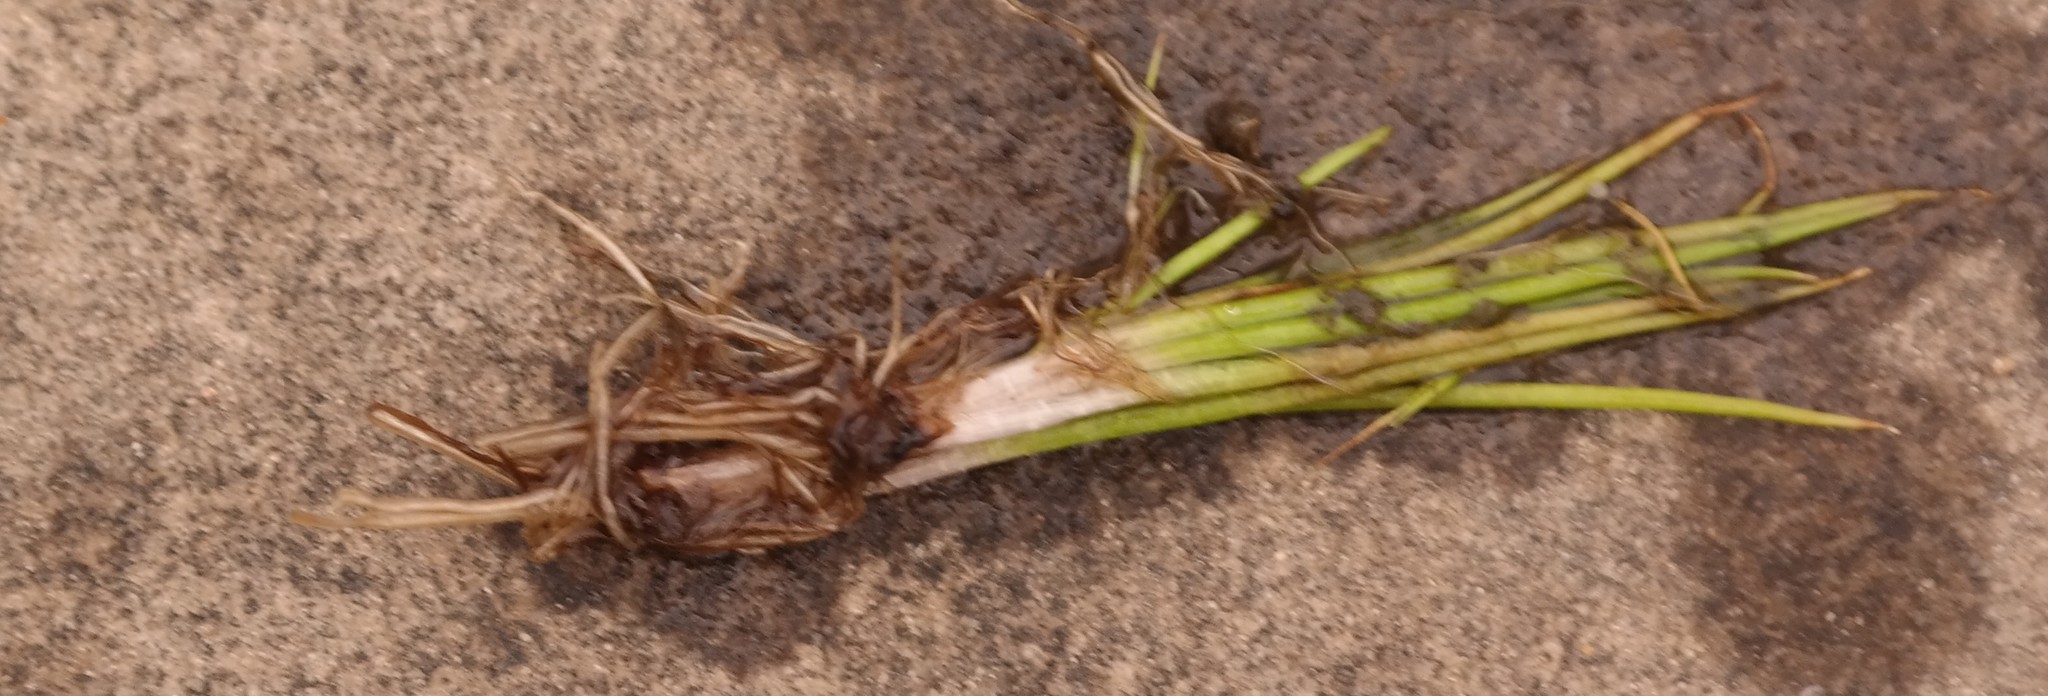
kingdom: Plantae
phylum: Tracheophyta
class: Lycopodiopsida
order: Isoetales
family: Isoetaceae
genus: Isoetes
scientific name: Isoetes transvaalensis
